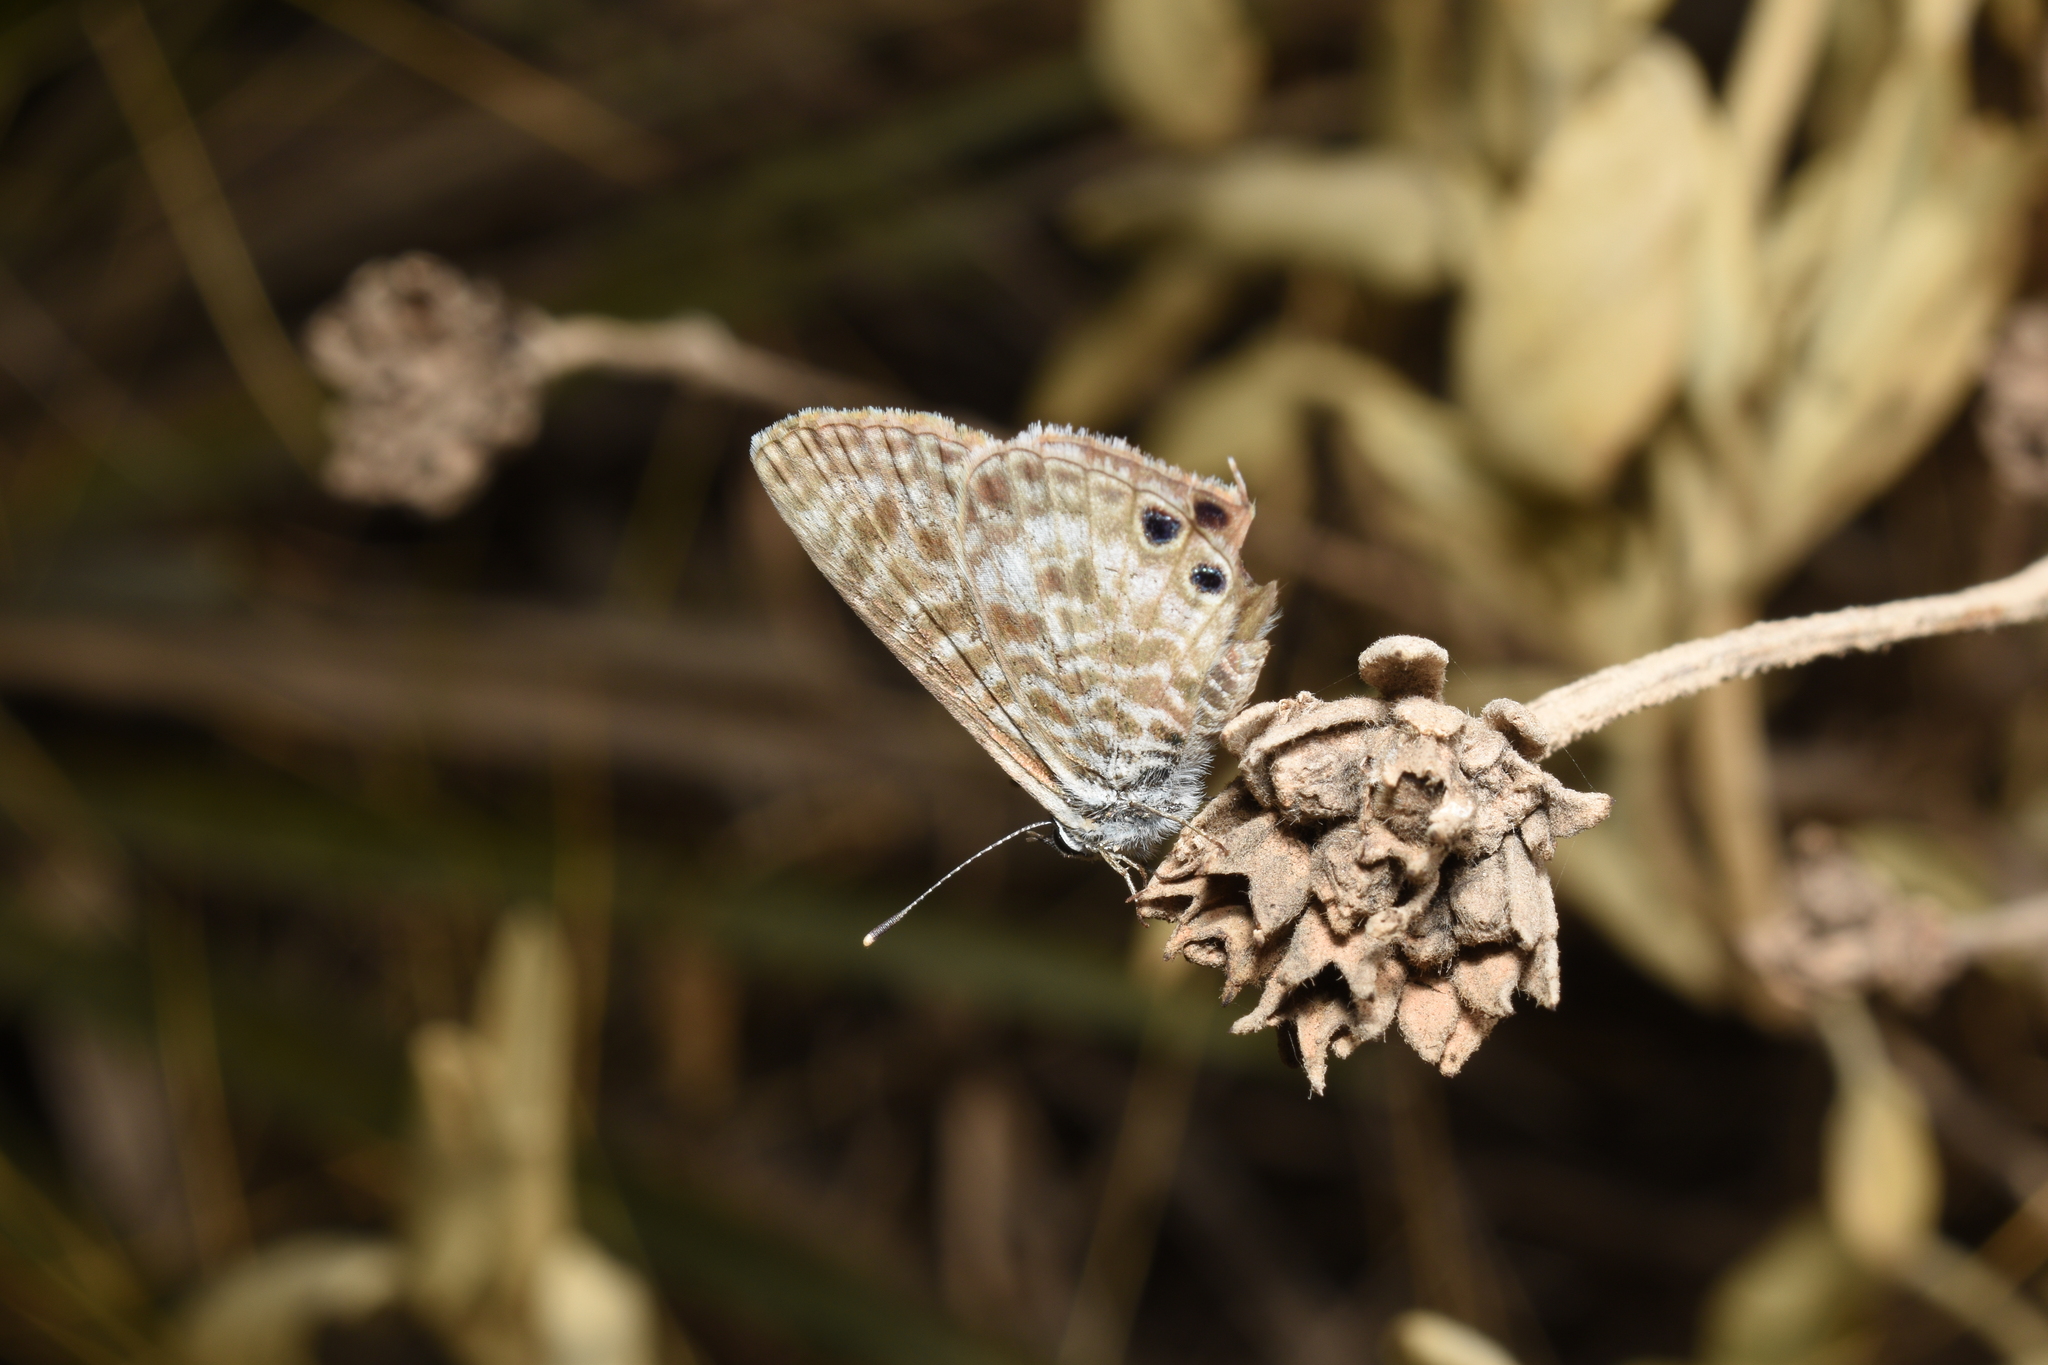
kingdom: Animalia
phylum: Arthropoda
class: Insecta
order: Lepidoptera
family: Lycaenidae
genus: Leptotes
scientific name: Leptotes pirithous
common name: Lang's short-tailed blue
